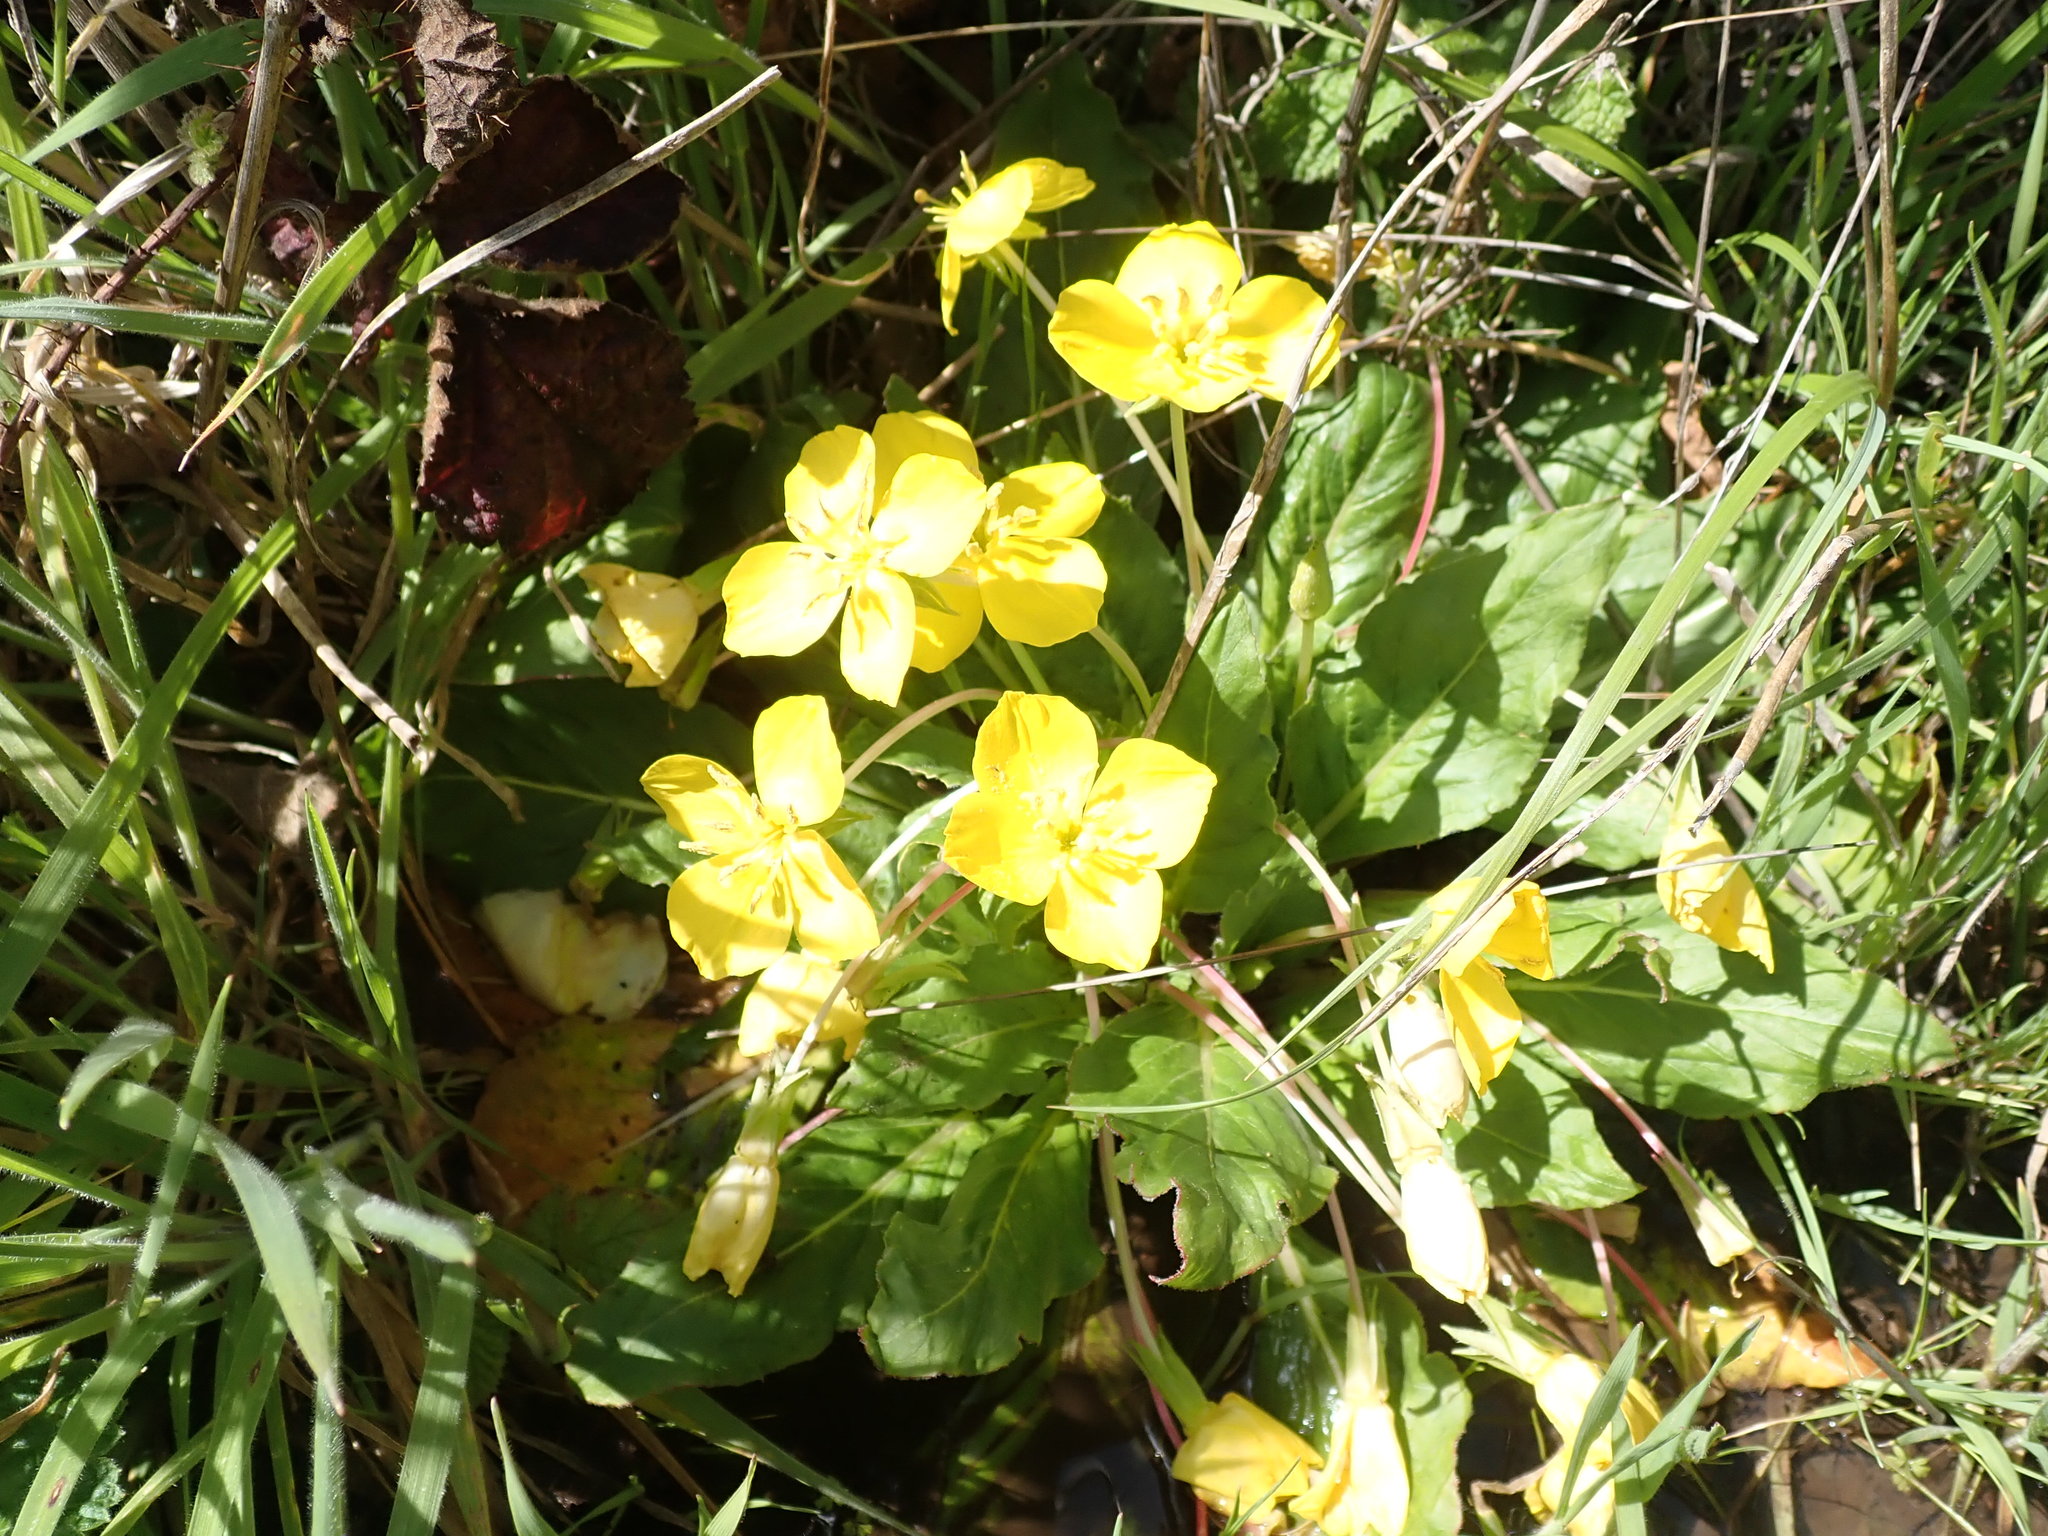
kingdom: Plantae
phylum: Tracheophyta
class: Magnoliopsida
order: Myrtales
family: Onagraceae
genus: Taraxia
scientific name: Taraxia ovata
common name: Goldeneggs
